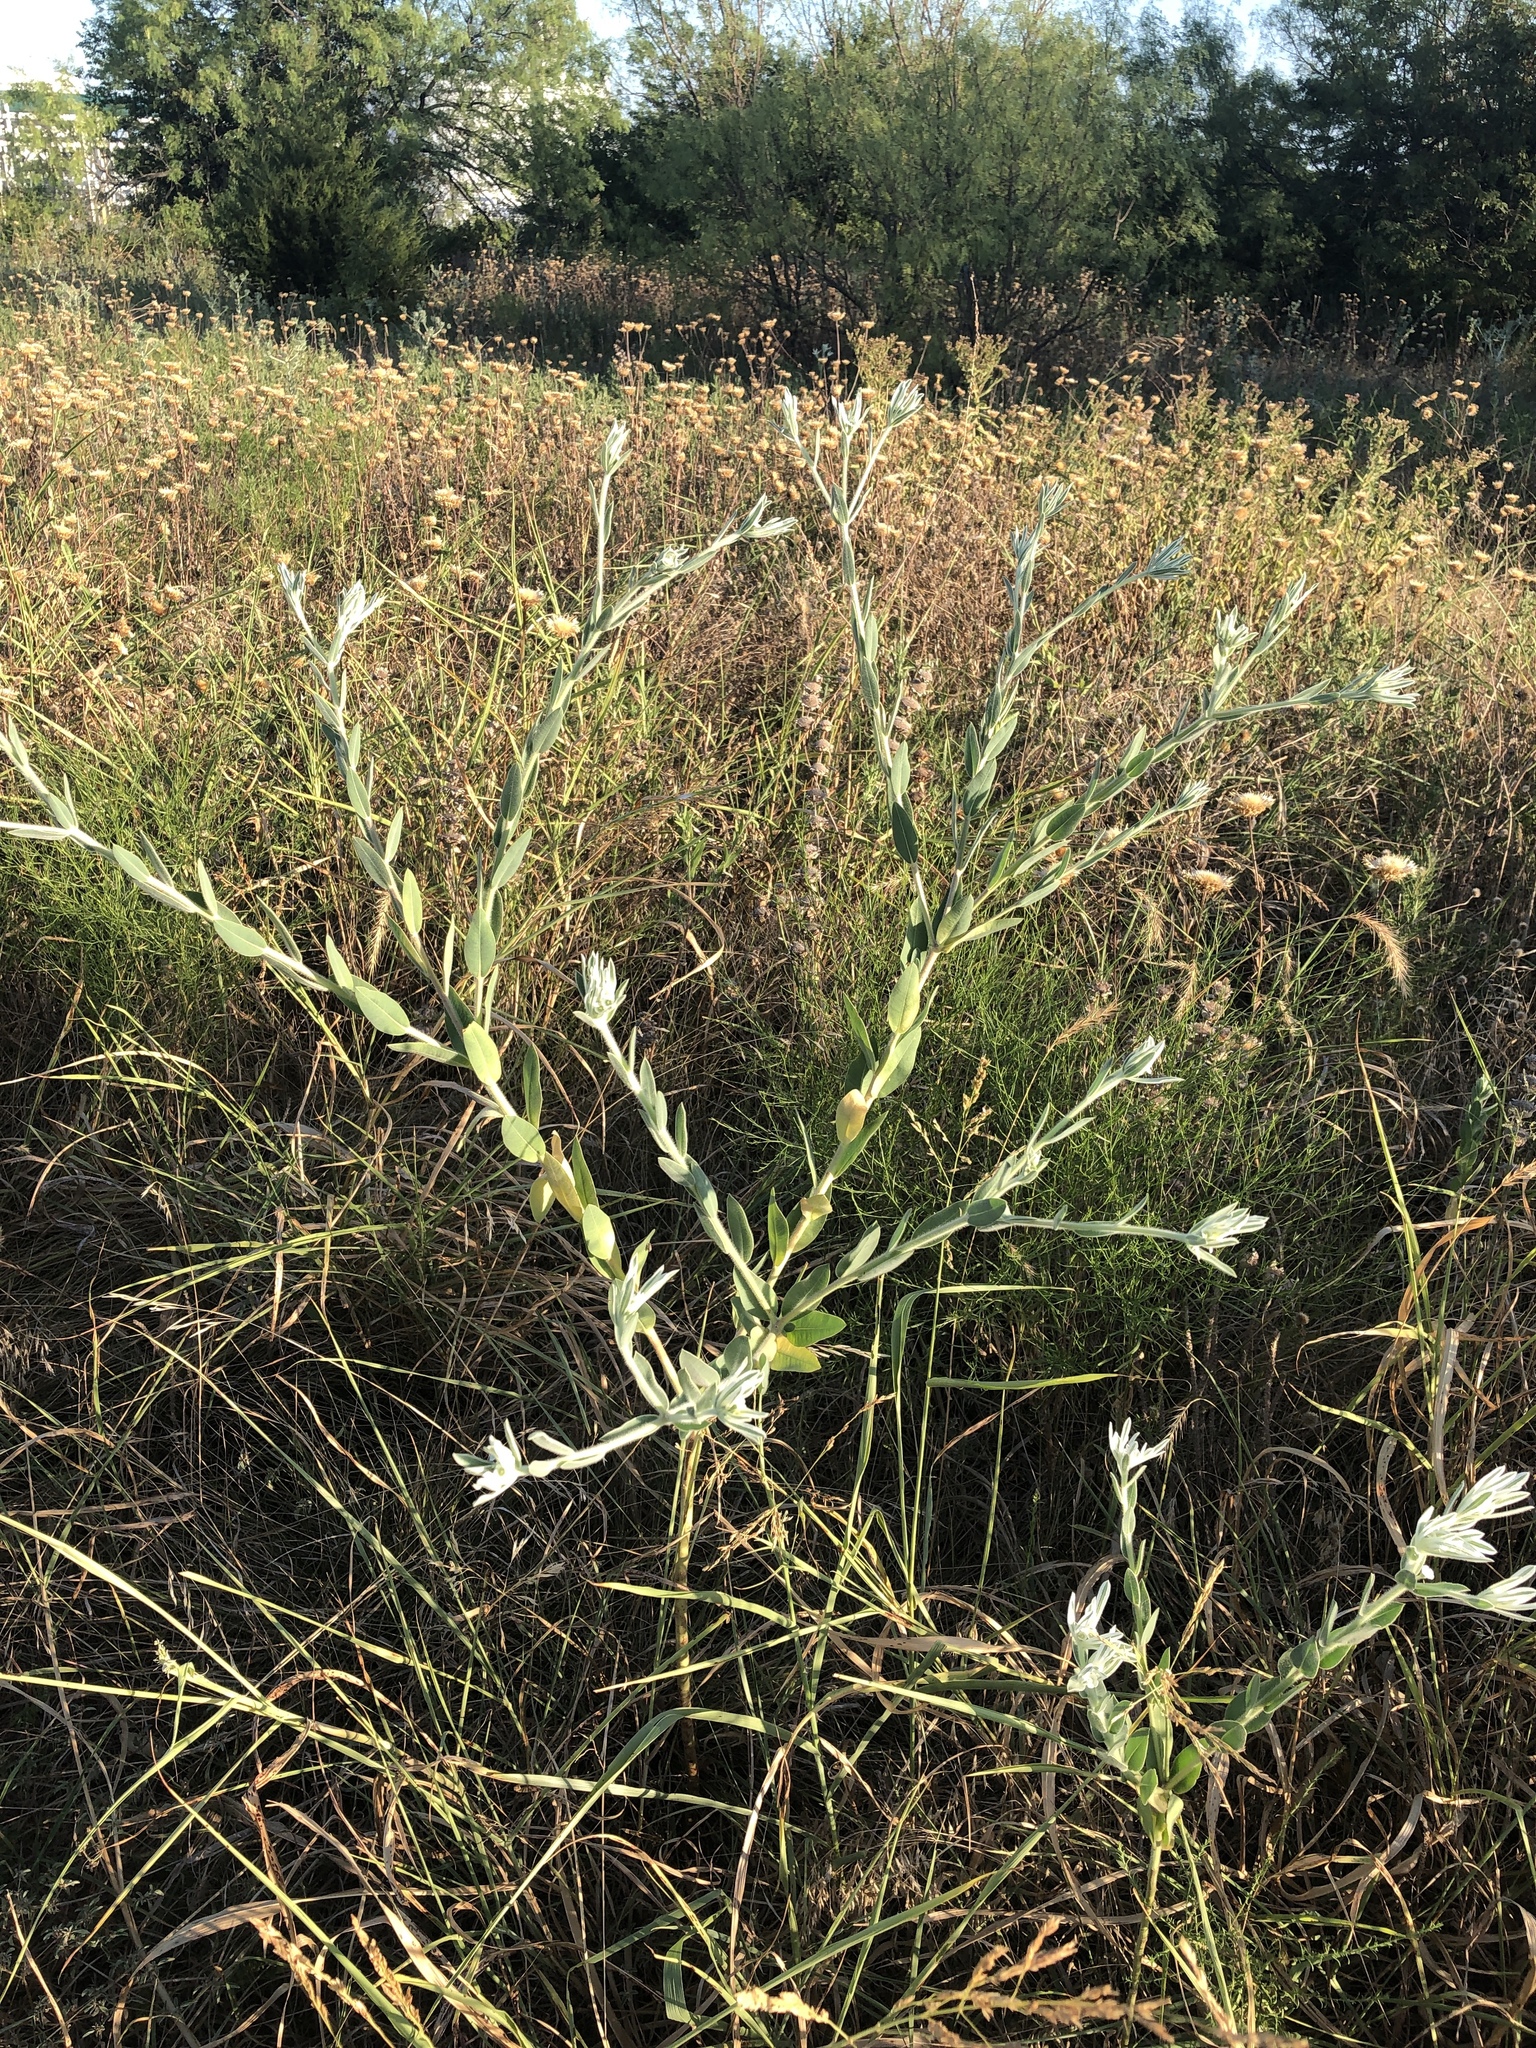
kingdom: Plantae
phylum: Tracheophyta
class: Magnoliopsida
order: Malpighiales
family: Euphorbiaceae
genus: Euphorbia
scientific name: Euphorbia bicolor
